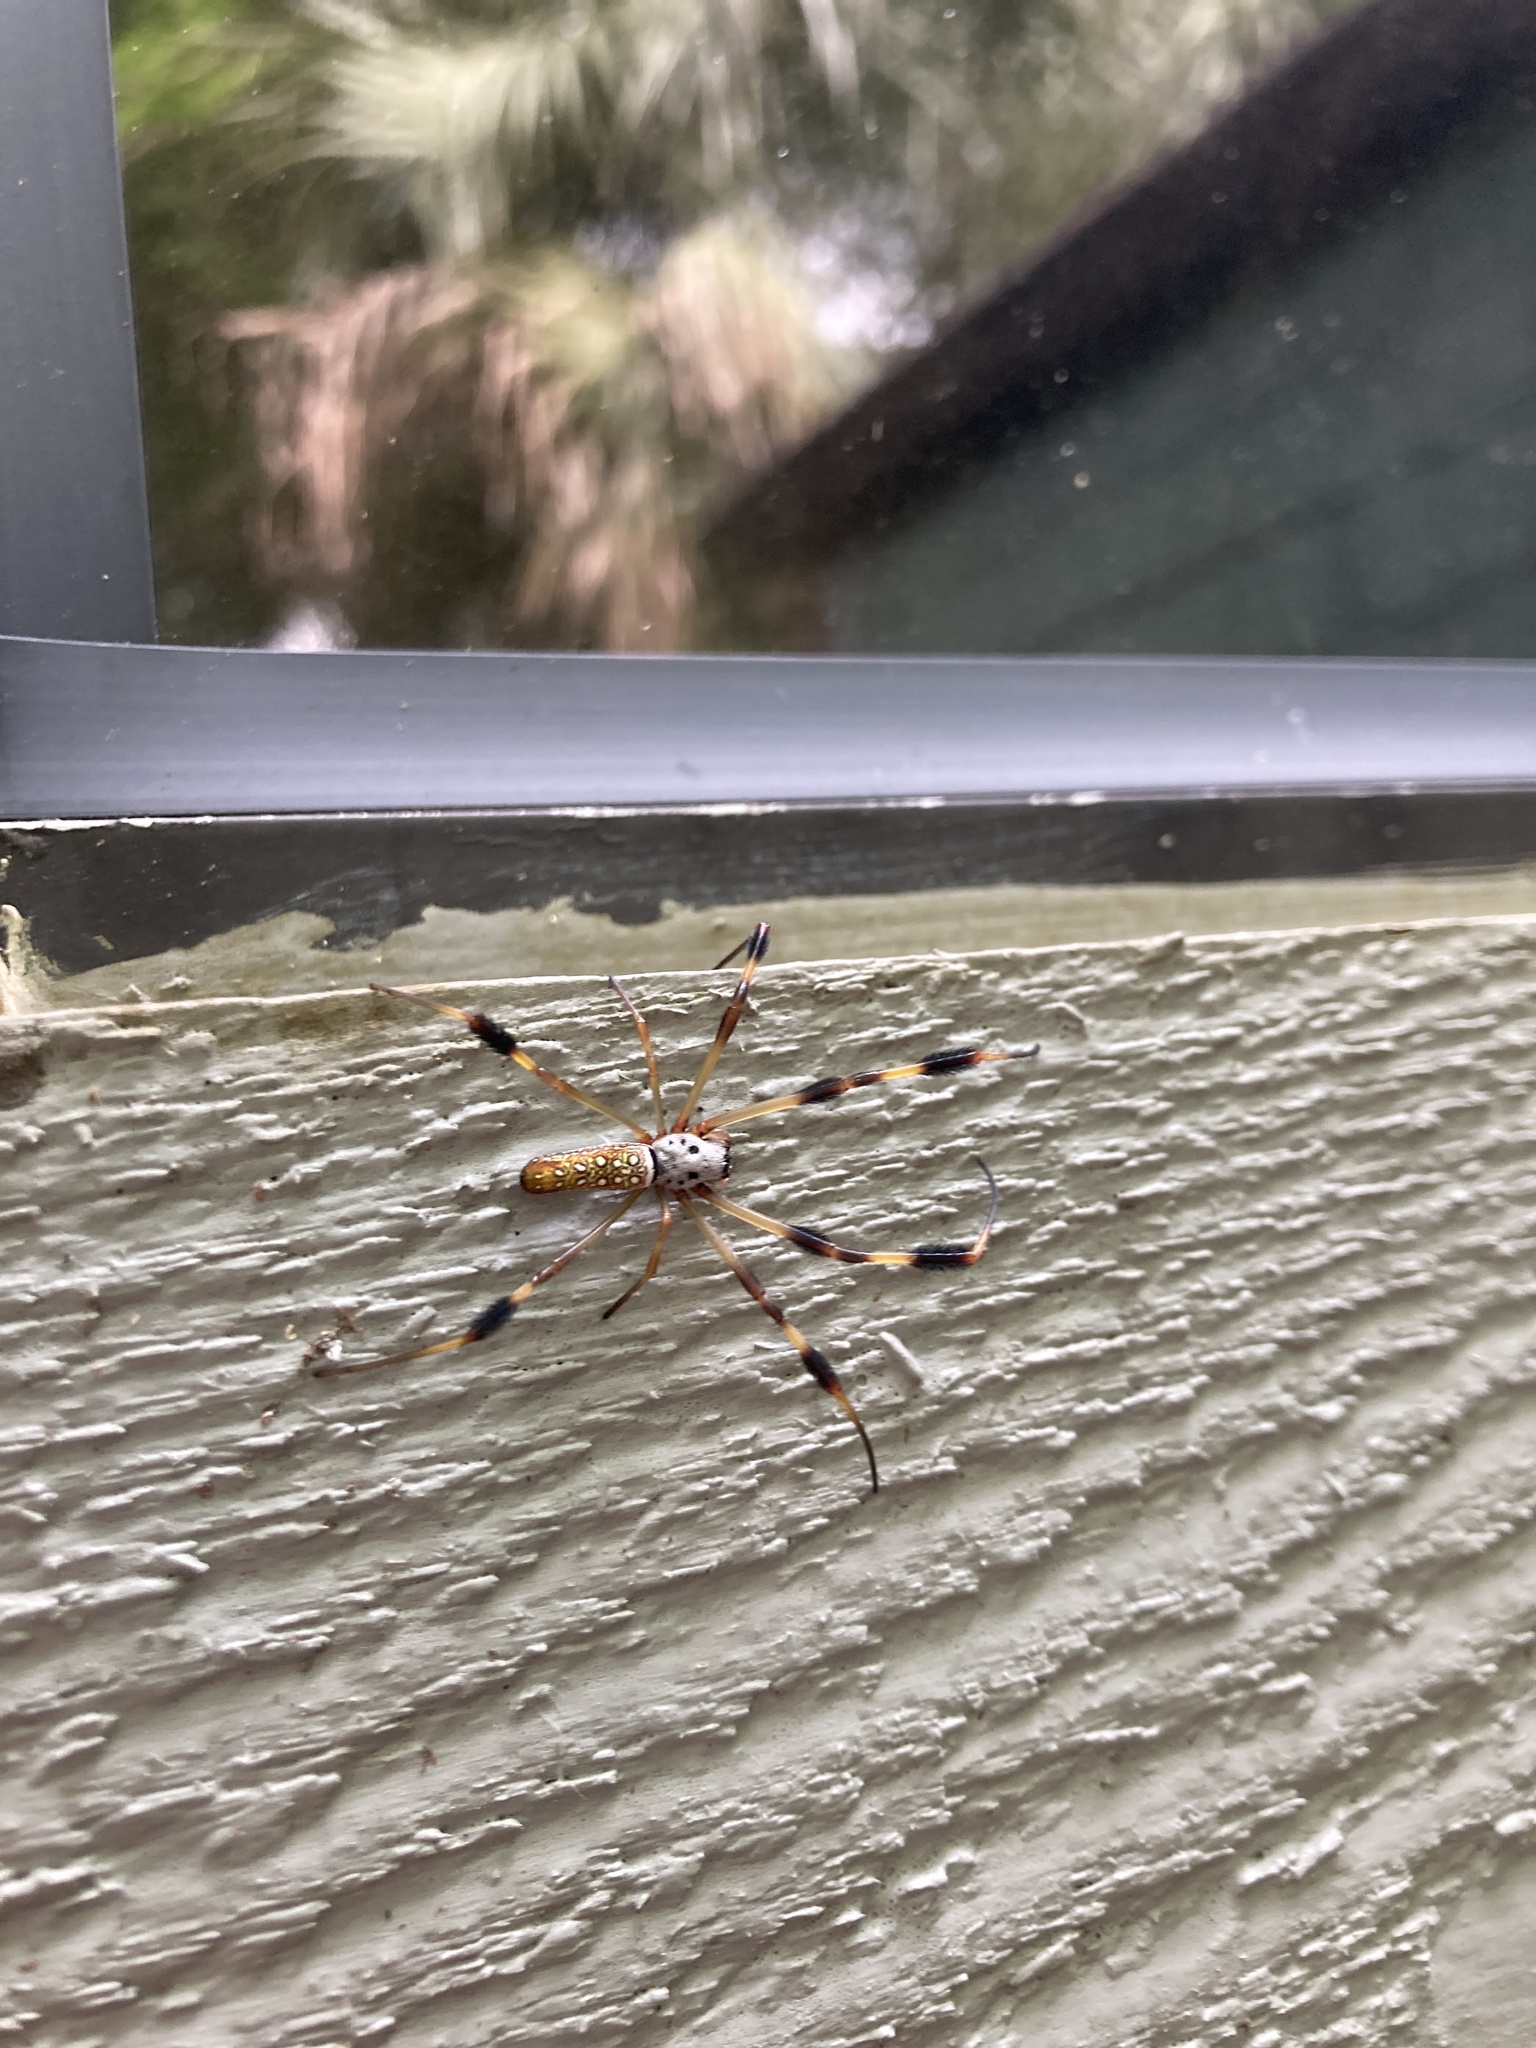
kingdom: Animalia
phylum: Arthropoda
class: Arachnida
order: Araneae
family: Araneidae
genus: Trichonephila
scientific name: Trichonephila clavipes
